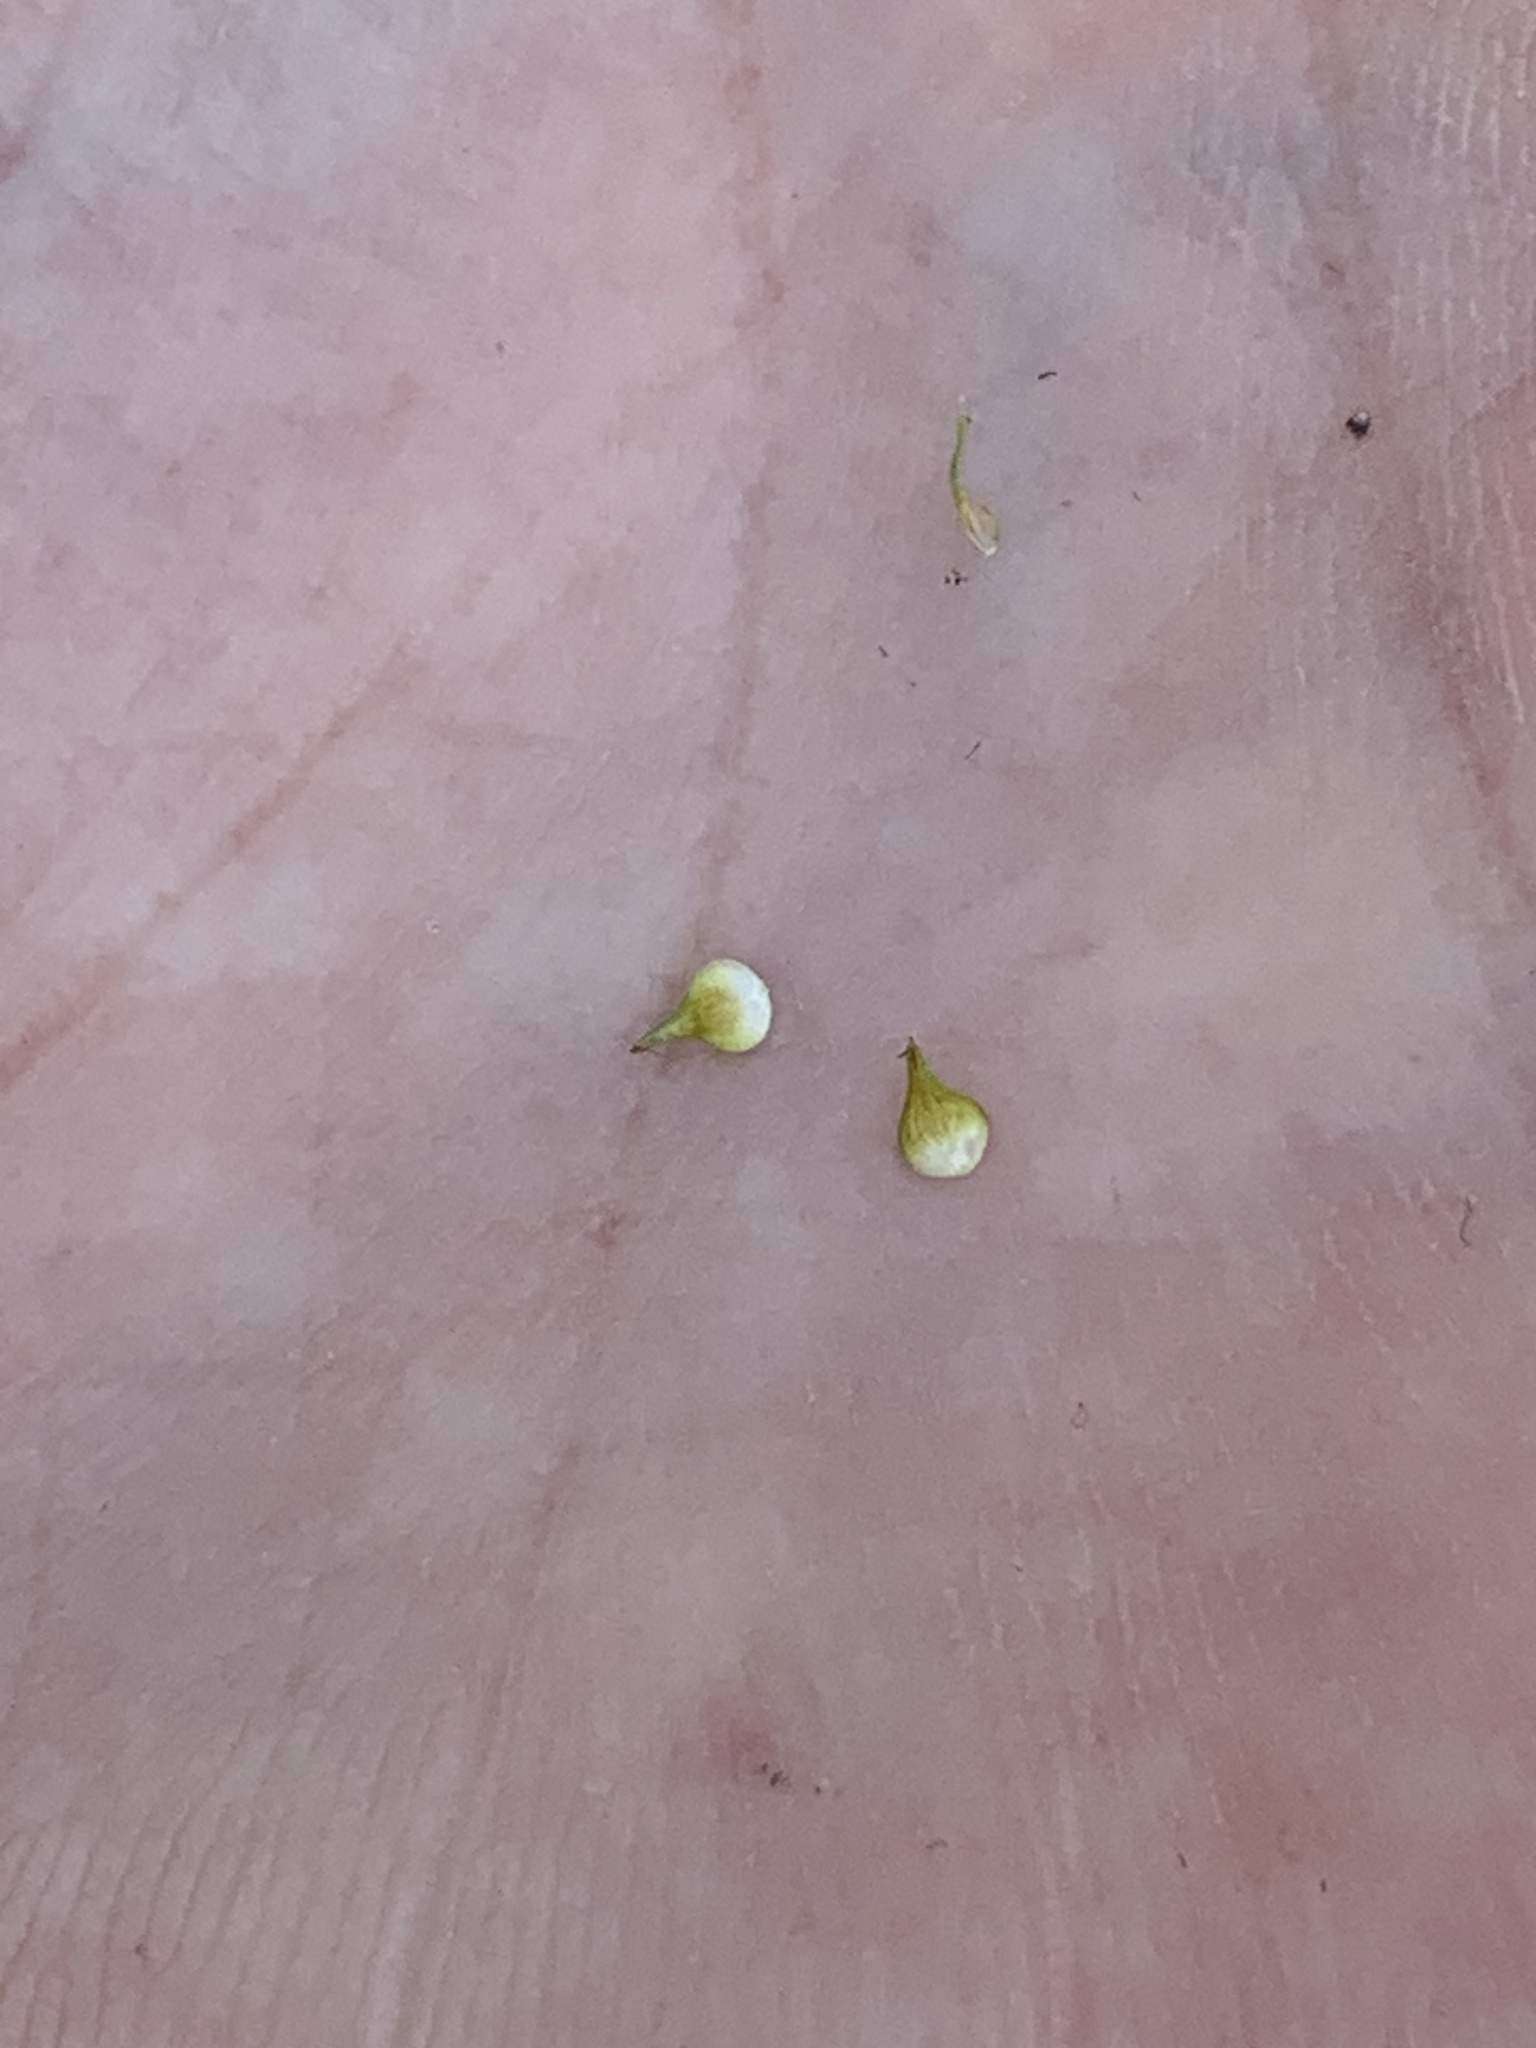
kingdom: Plantae
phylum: Tracheophyta
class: Liliopsida
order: Poales
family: Cyperaceae
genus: Carex
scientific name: Carex annectens
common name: Large fox sedge
